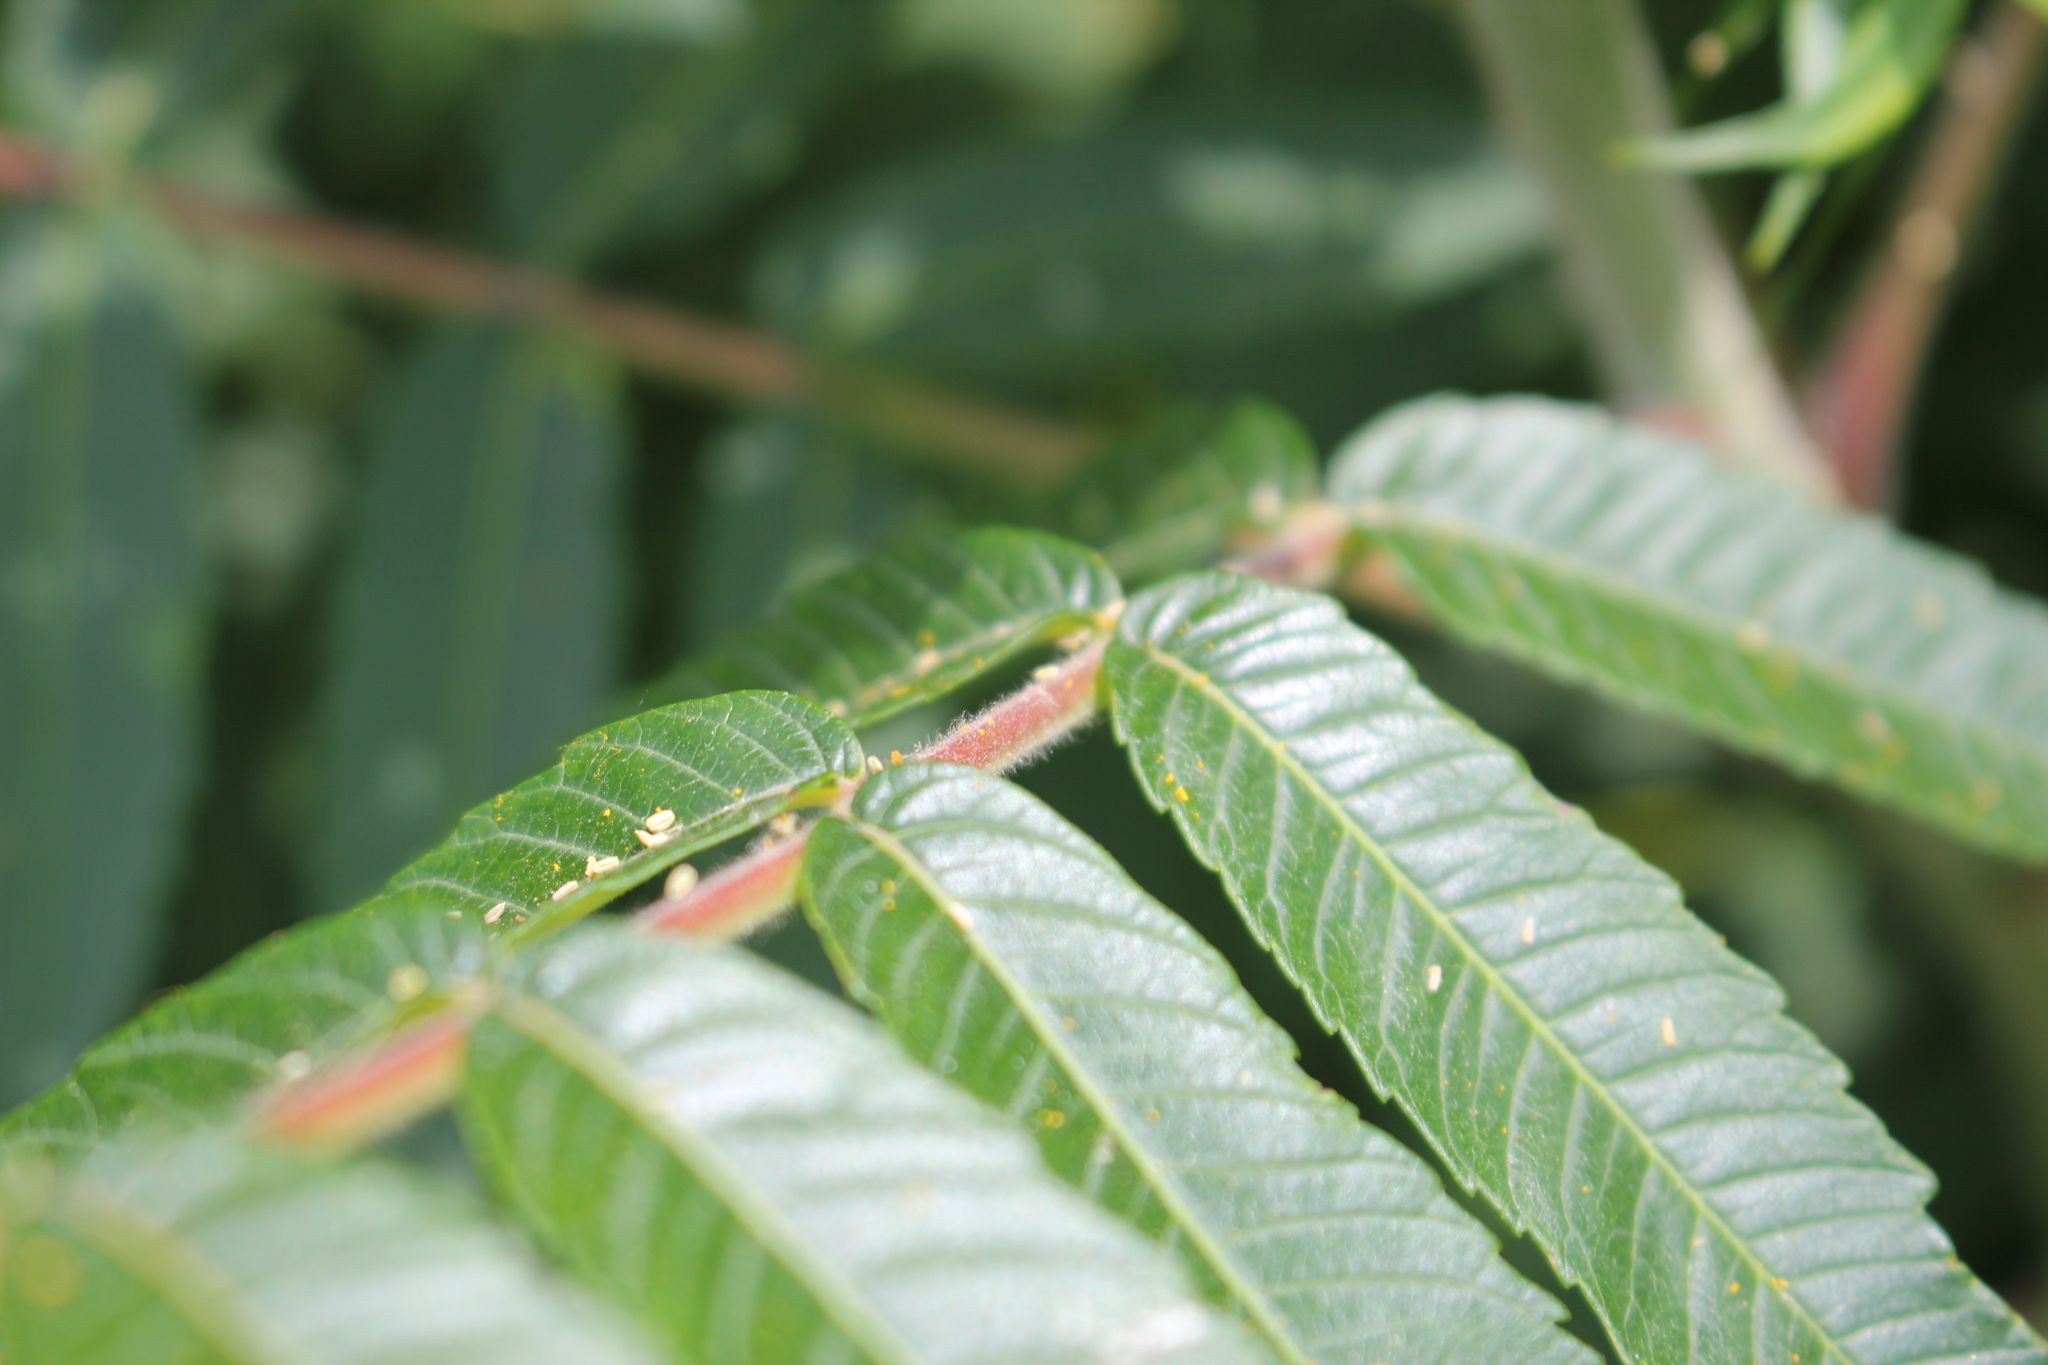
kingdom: Plantae
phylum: Tracheophyta
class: Magnoliopsida
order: Sapindales
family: Anacardiaceae
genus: Rhus
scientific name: Rhus typhina
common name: Staghorn sumac
